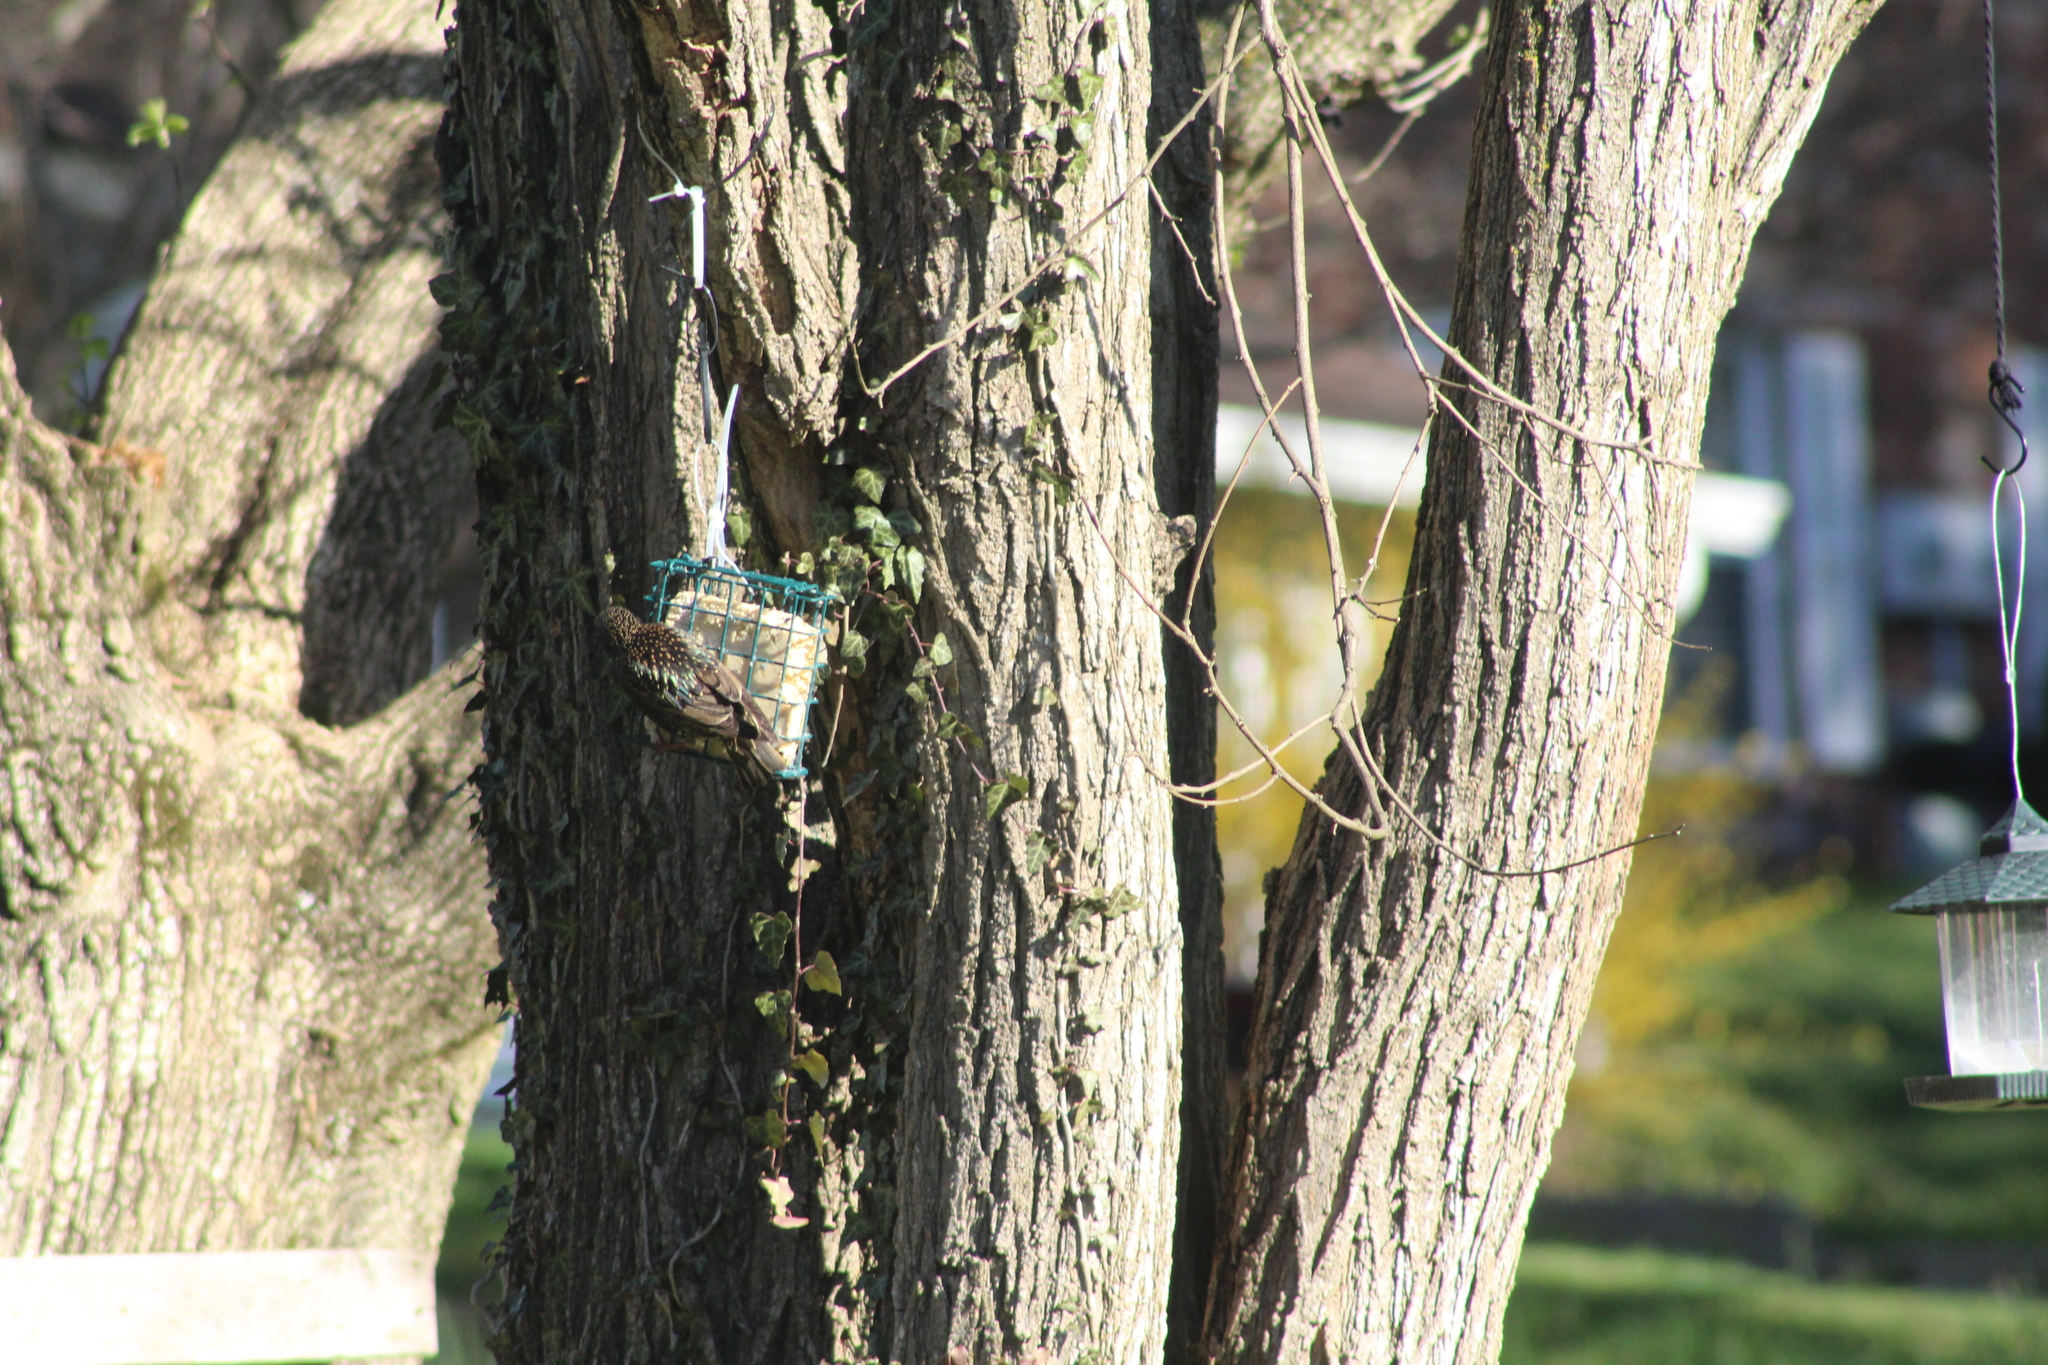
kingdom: Animalia
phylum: Chordata
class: Aves
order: Passeriformes
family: Sturnidae
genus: Sturnus
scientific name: Sturnus vulgaris
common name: Common starling
